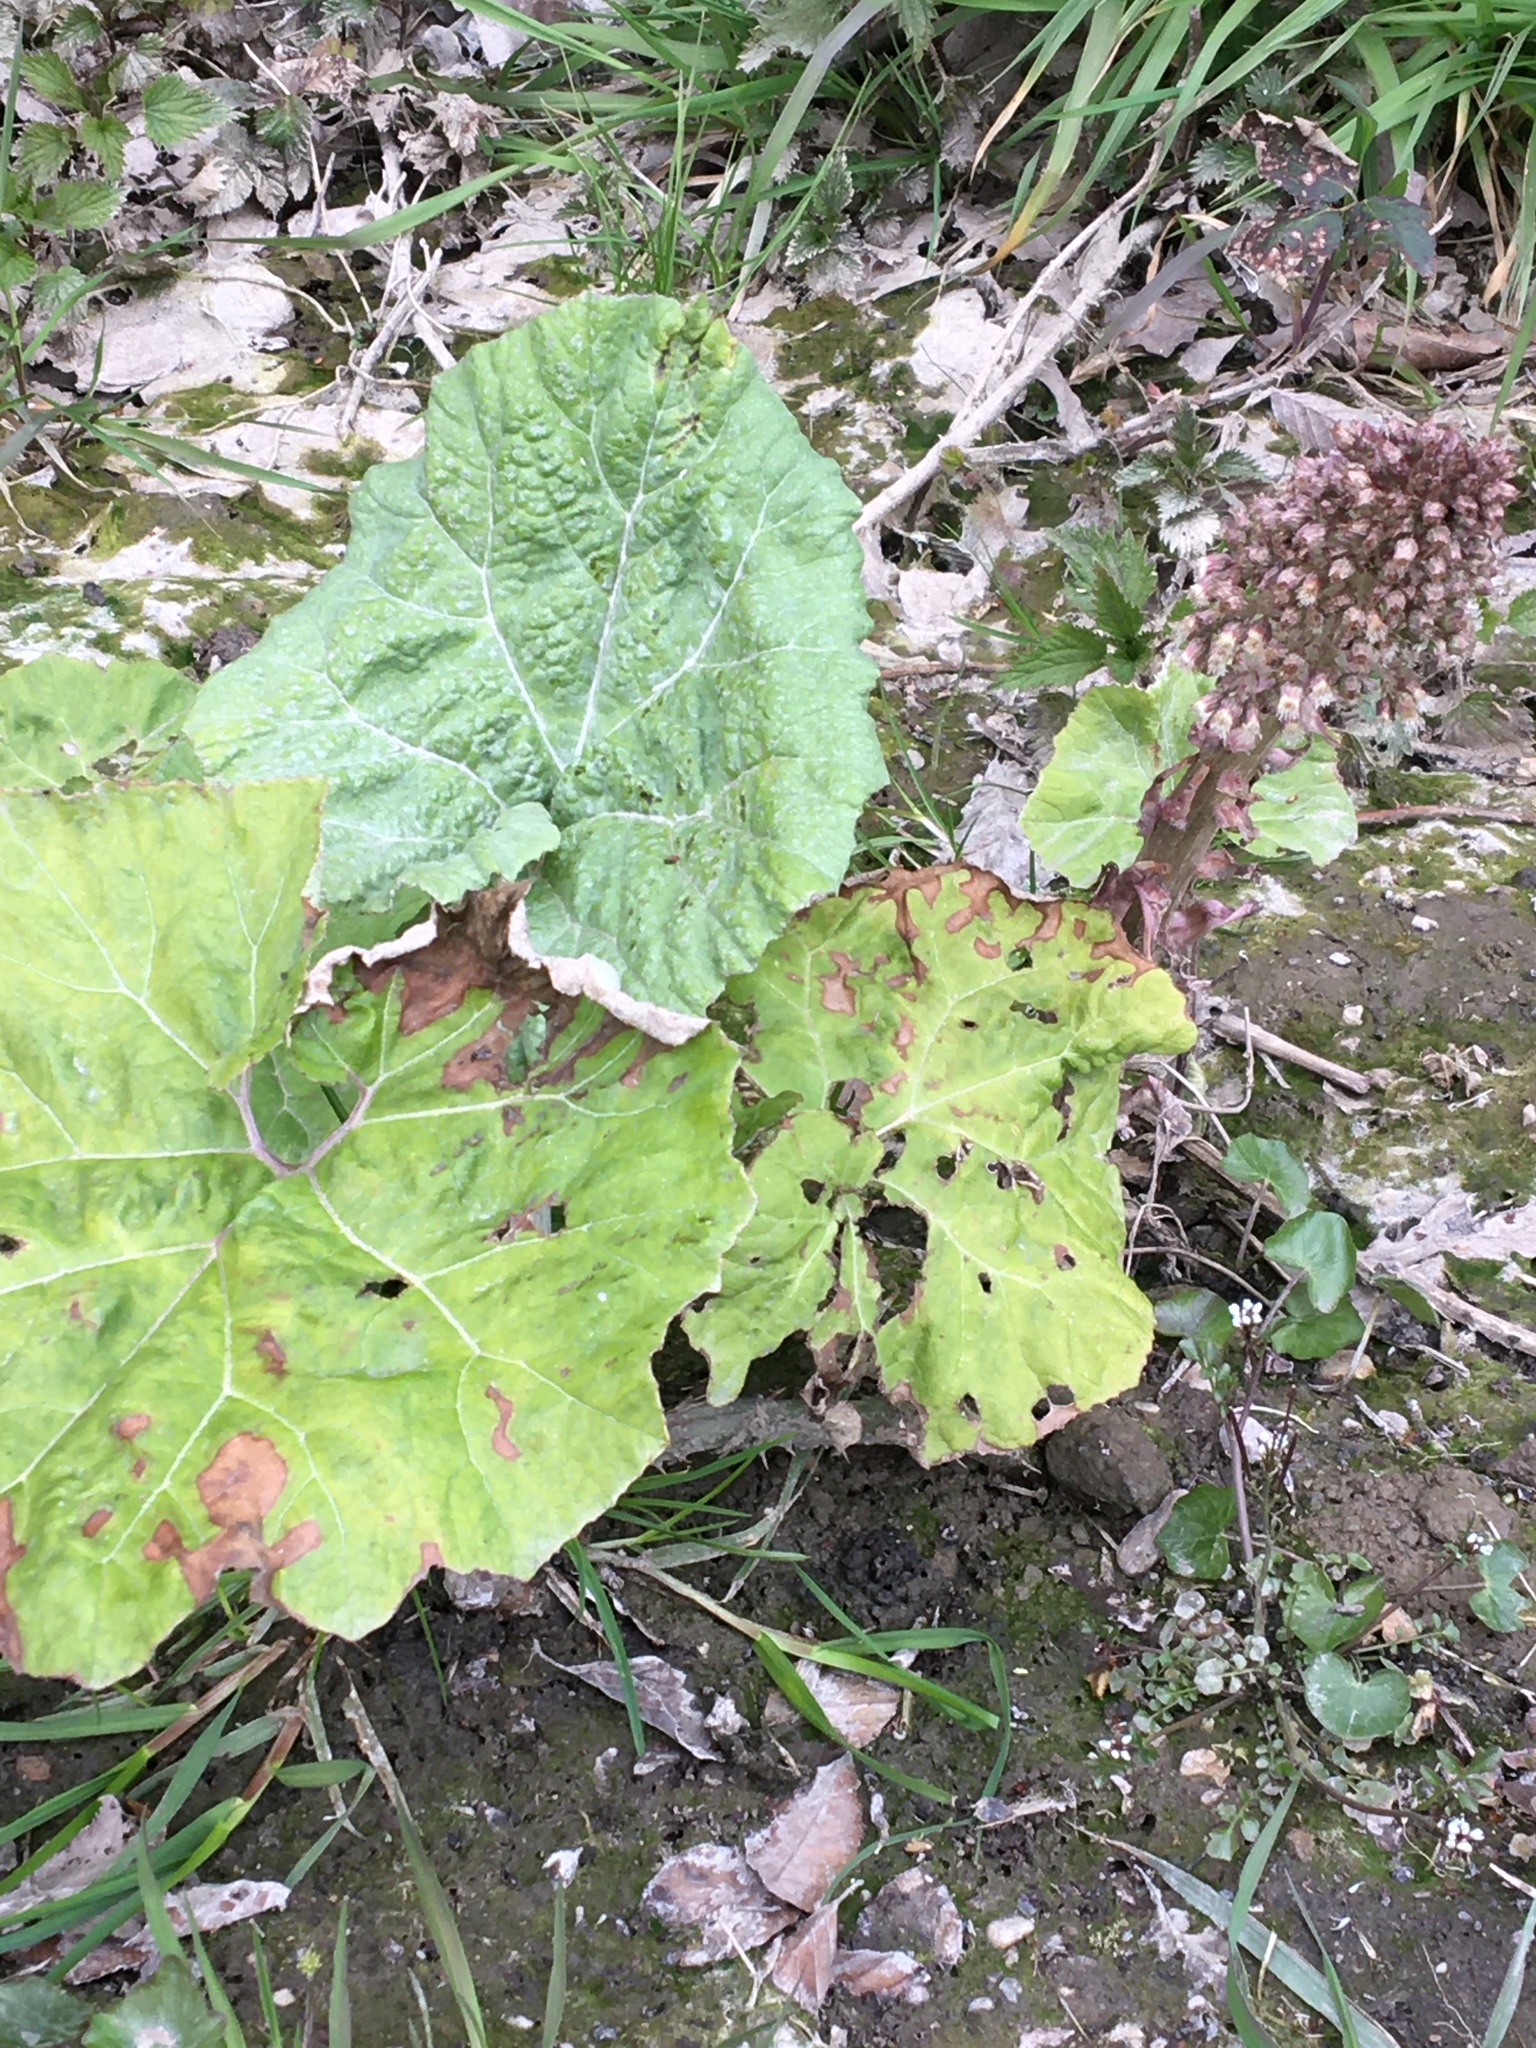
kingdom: Plantae
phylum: Tracheophyta
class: Magnoliopsida
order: Asterales
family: Asteraceae
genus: Petasites
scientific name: Petasites hybridus
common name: Butterbur
